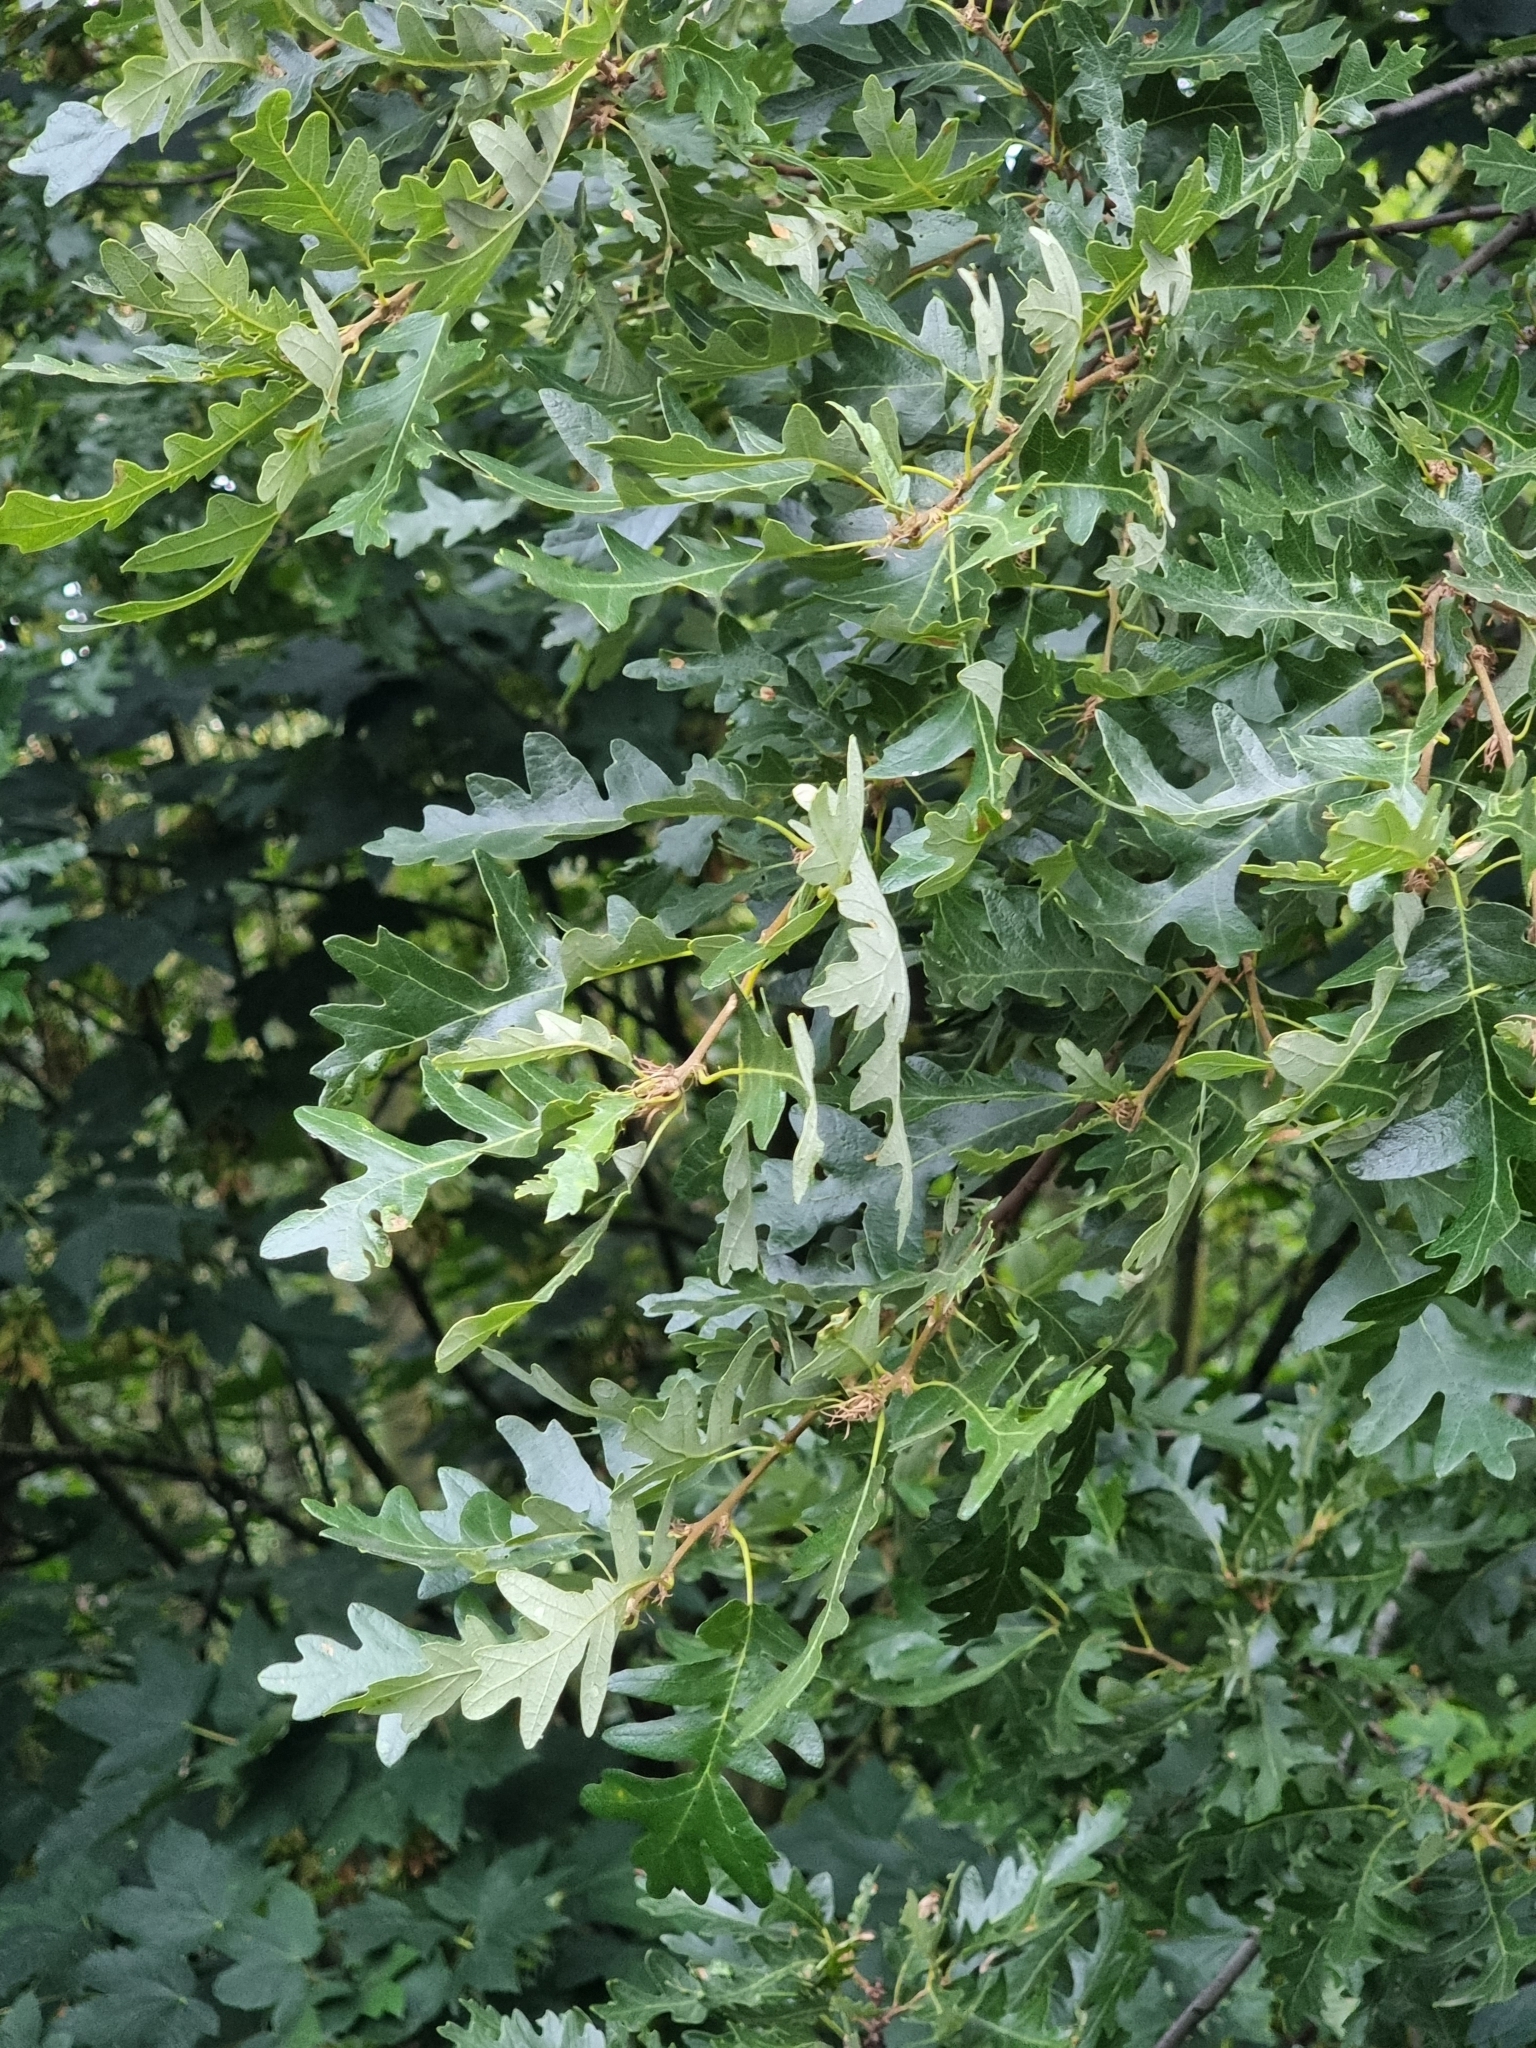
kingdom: Plantae
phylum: Tracheophyta
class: Magnoliopsida
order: Fagales
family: Fagaceae
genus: Quercus
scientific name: Quercus cerris
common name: Turkey oak
